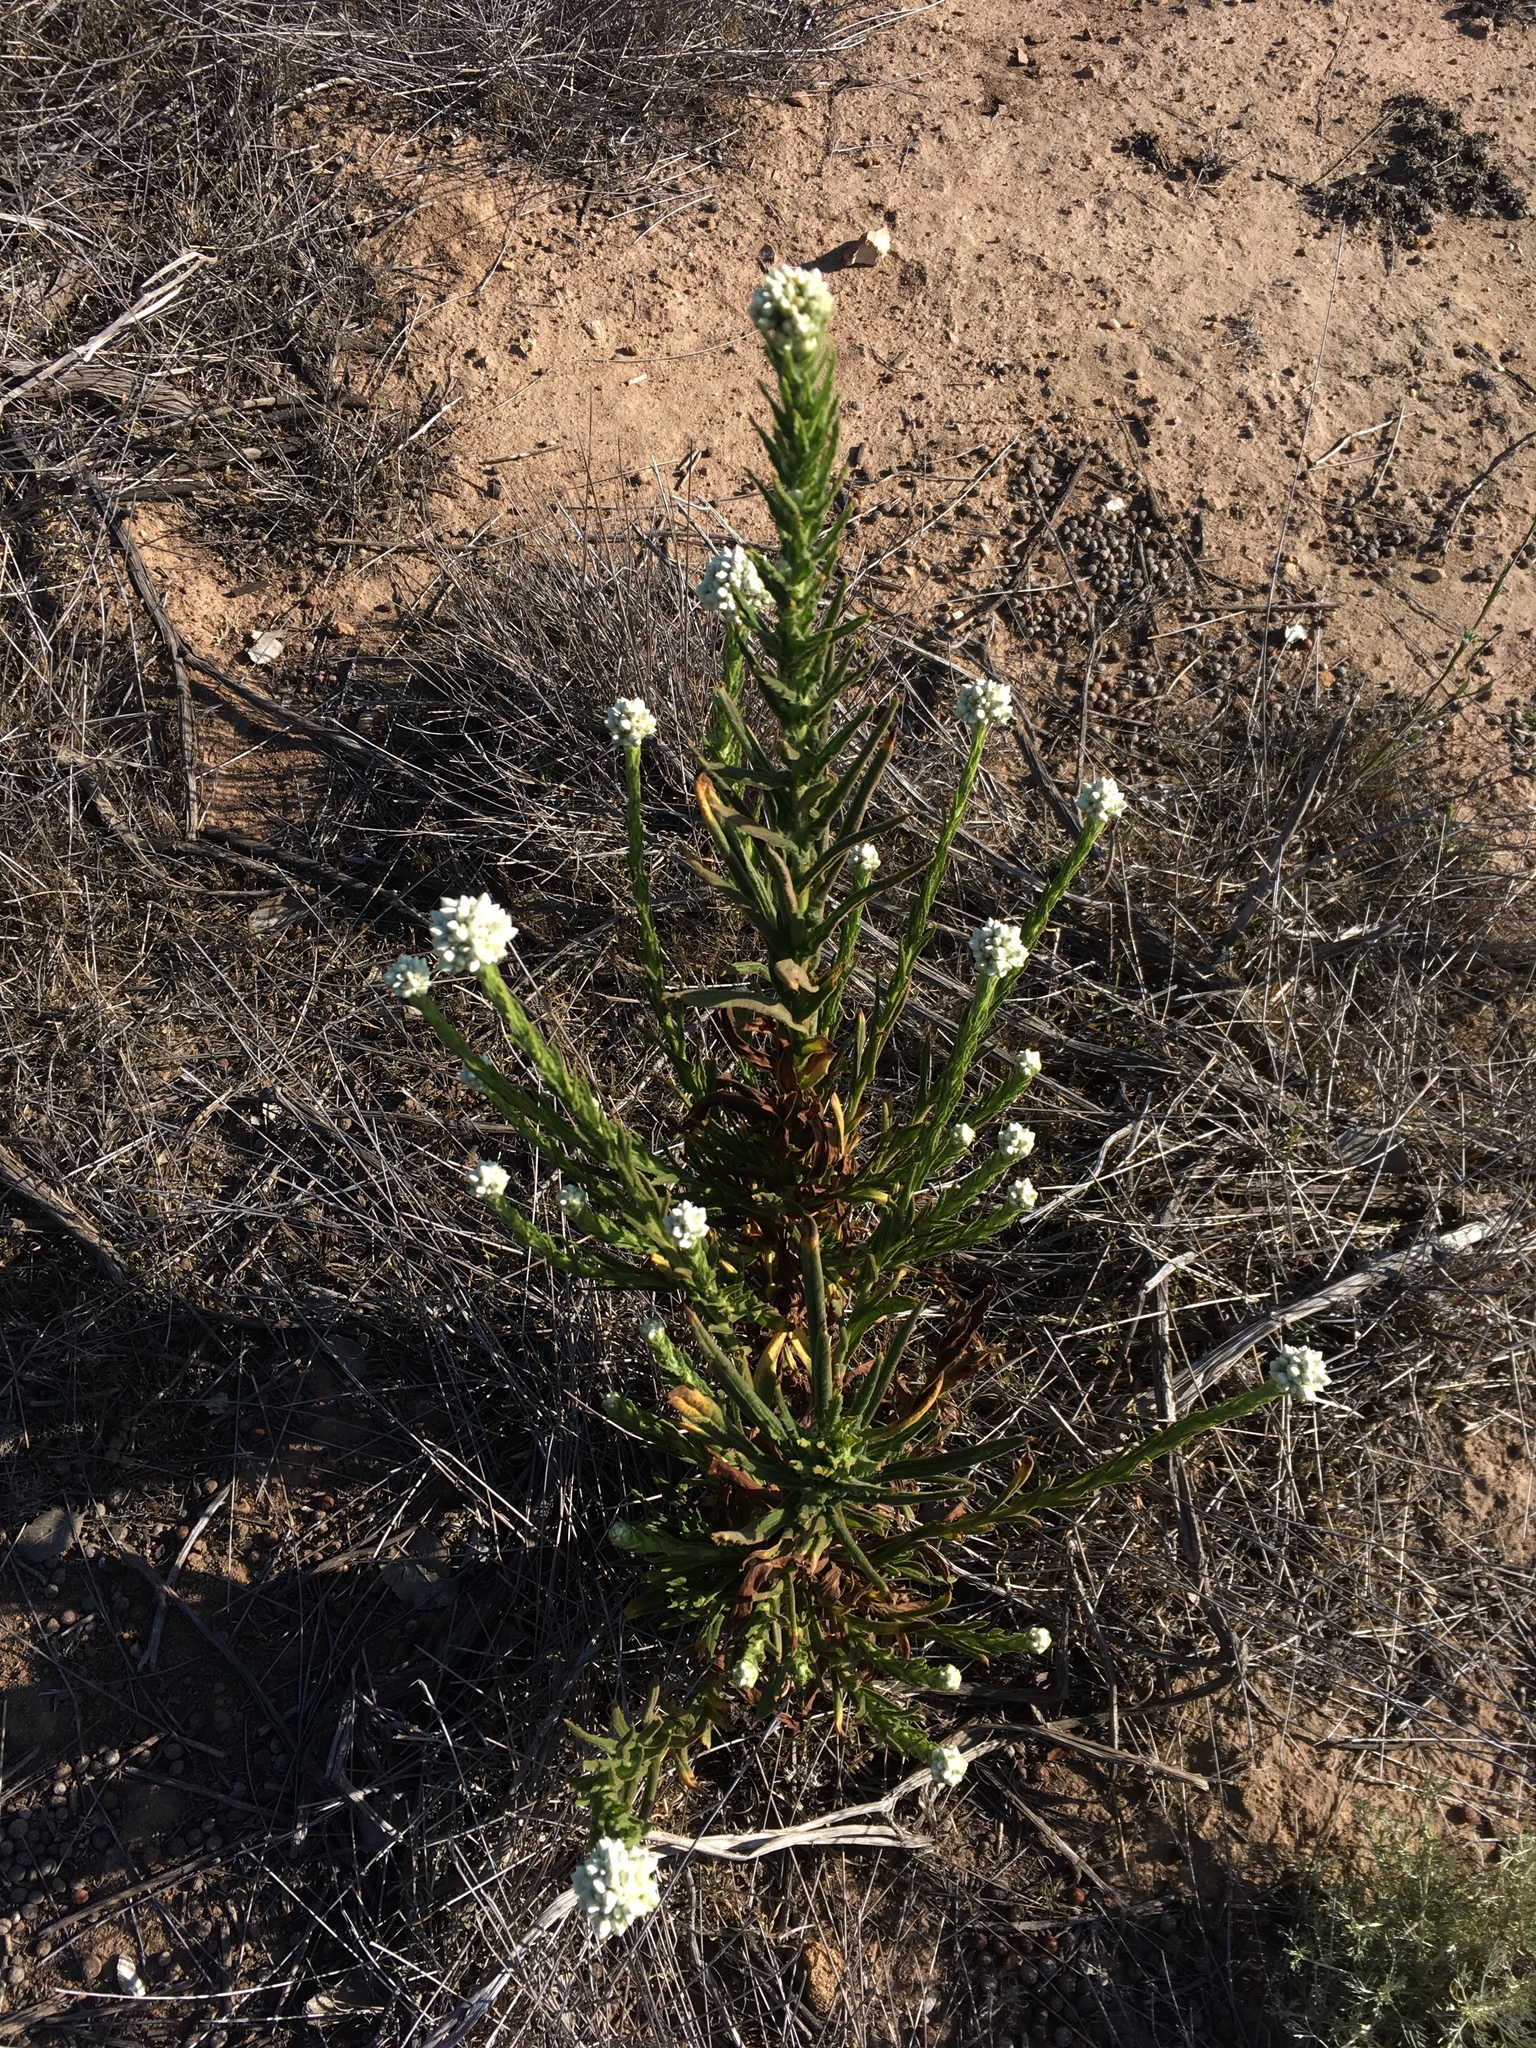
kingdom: Plantae
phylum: Tracheophyta
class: Magnoliopsida
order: Asterales
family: Asteraceae
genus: Pseudognaphalium
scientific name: Pseudognaphalium californicum
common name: California rabbit-tobacco
